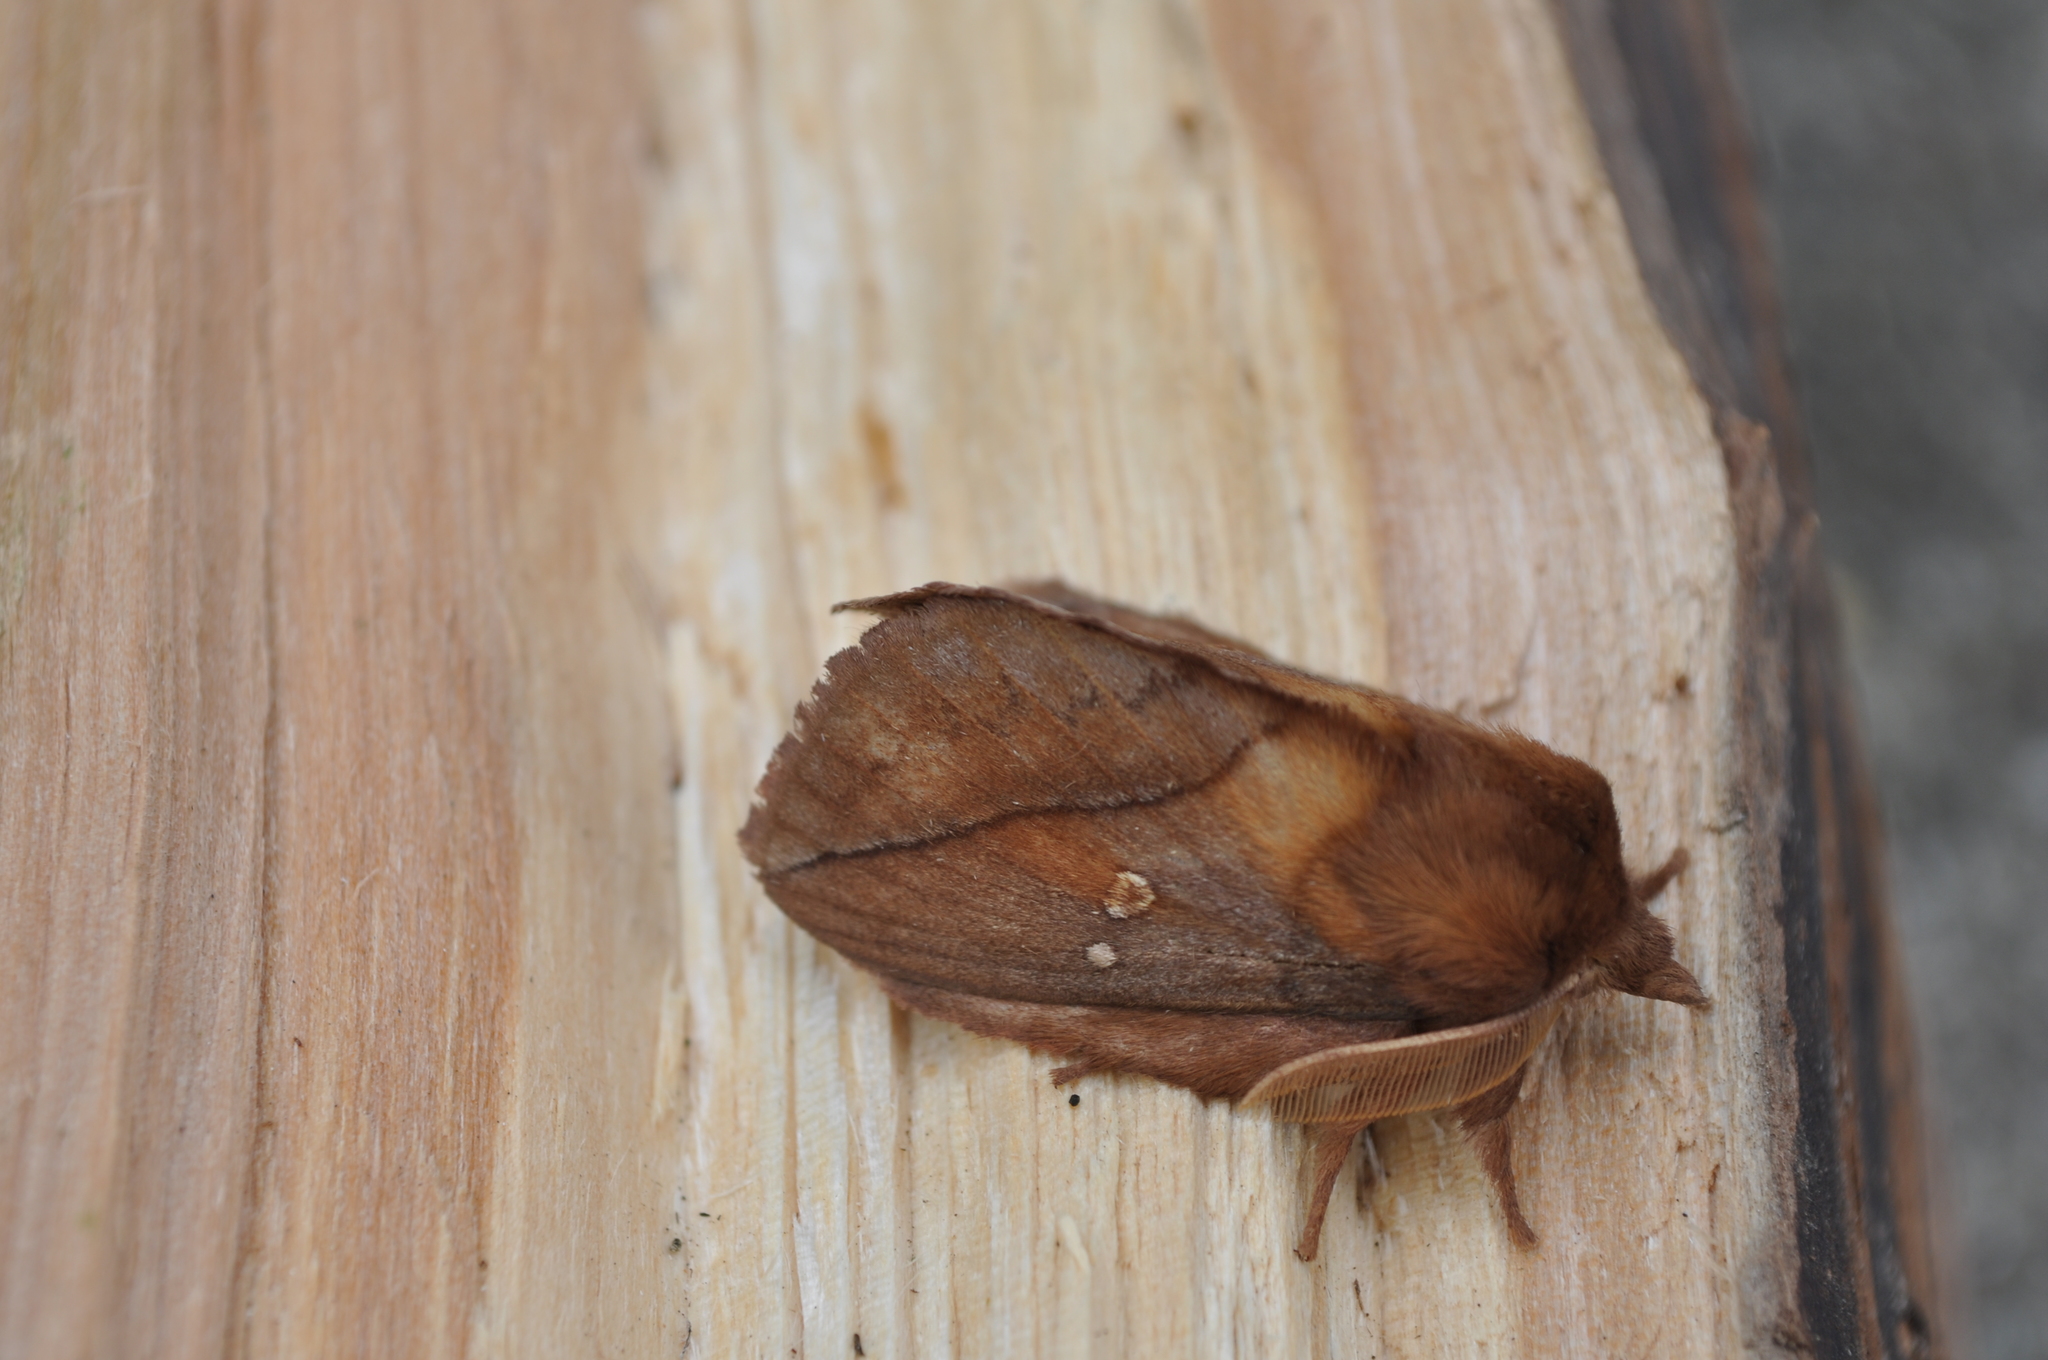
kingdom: Animalia
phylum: Arthropoda
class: Insecta
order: Lepidoptera
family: Lasiocampidae
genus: Euthrix
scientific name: Euthrix potatoria
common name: Drinker
